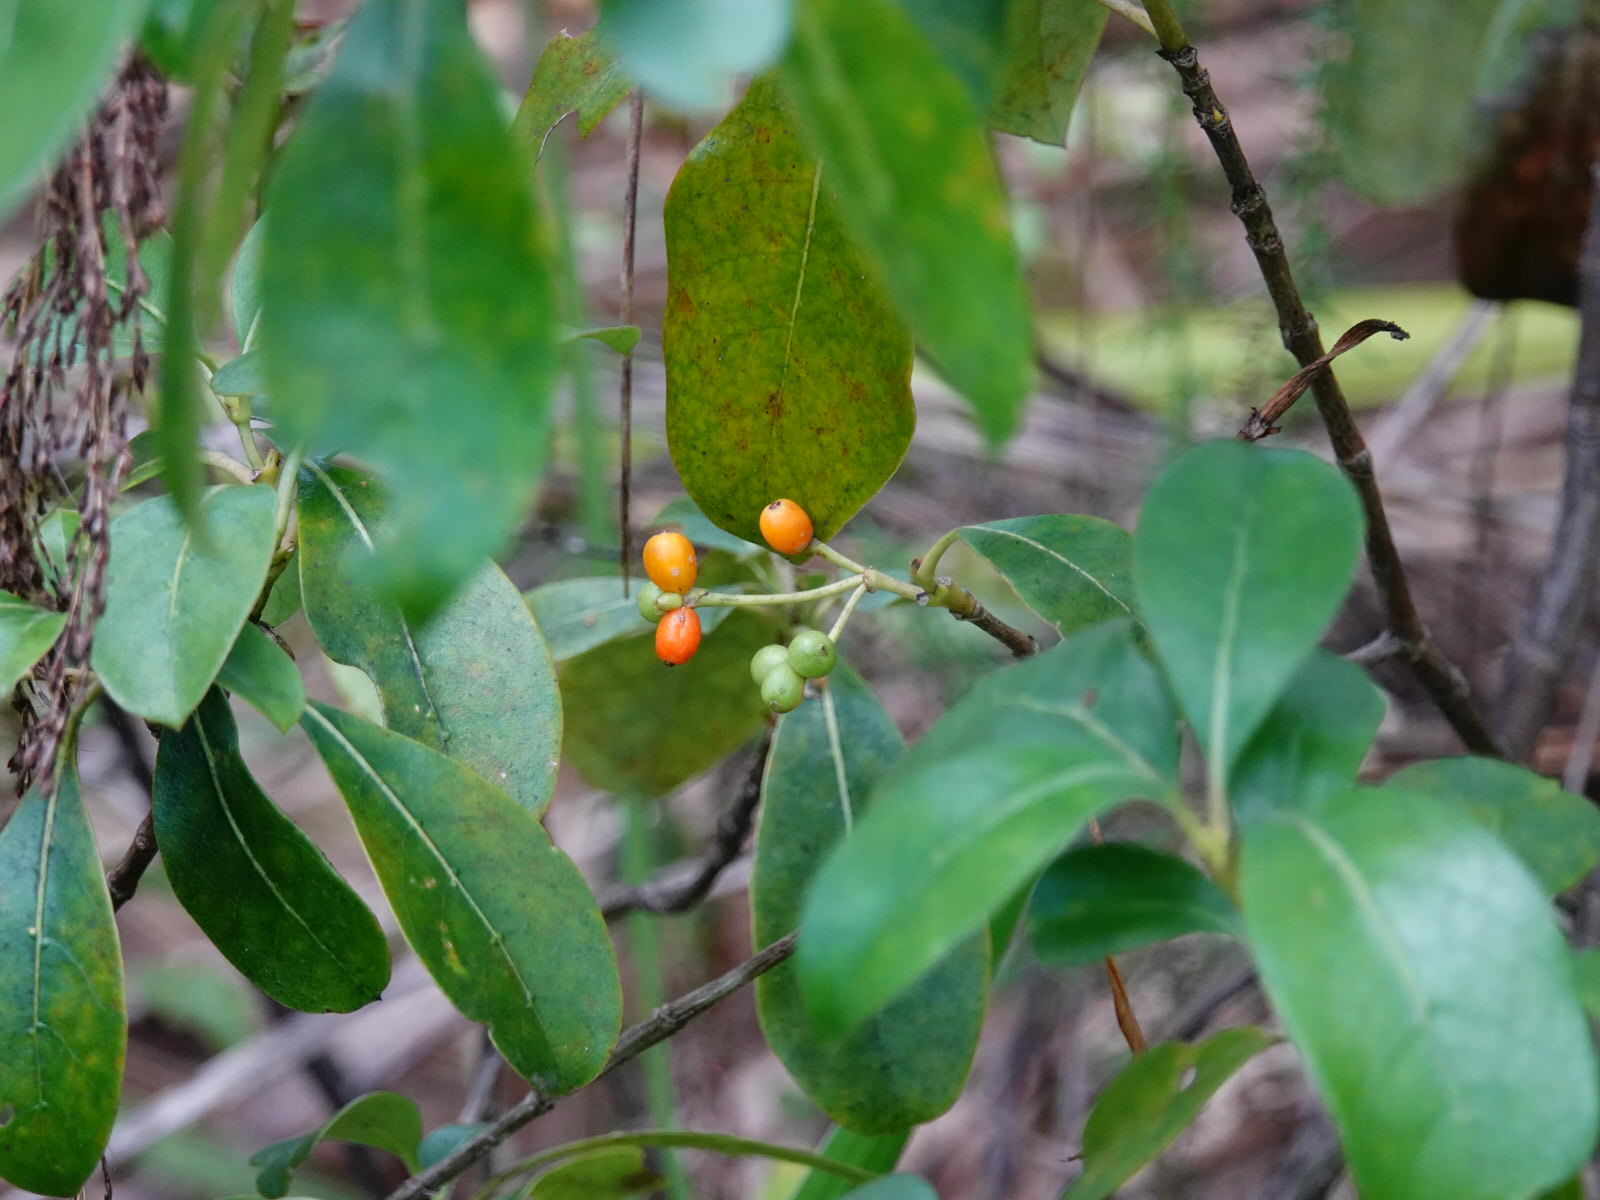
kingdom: Plantae
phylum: Tracheophyta
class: Magnoliopsida
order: Gentianales
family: Rubiaceae
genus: Coprosma
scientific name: Coprosma lucida
